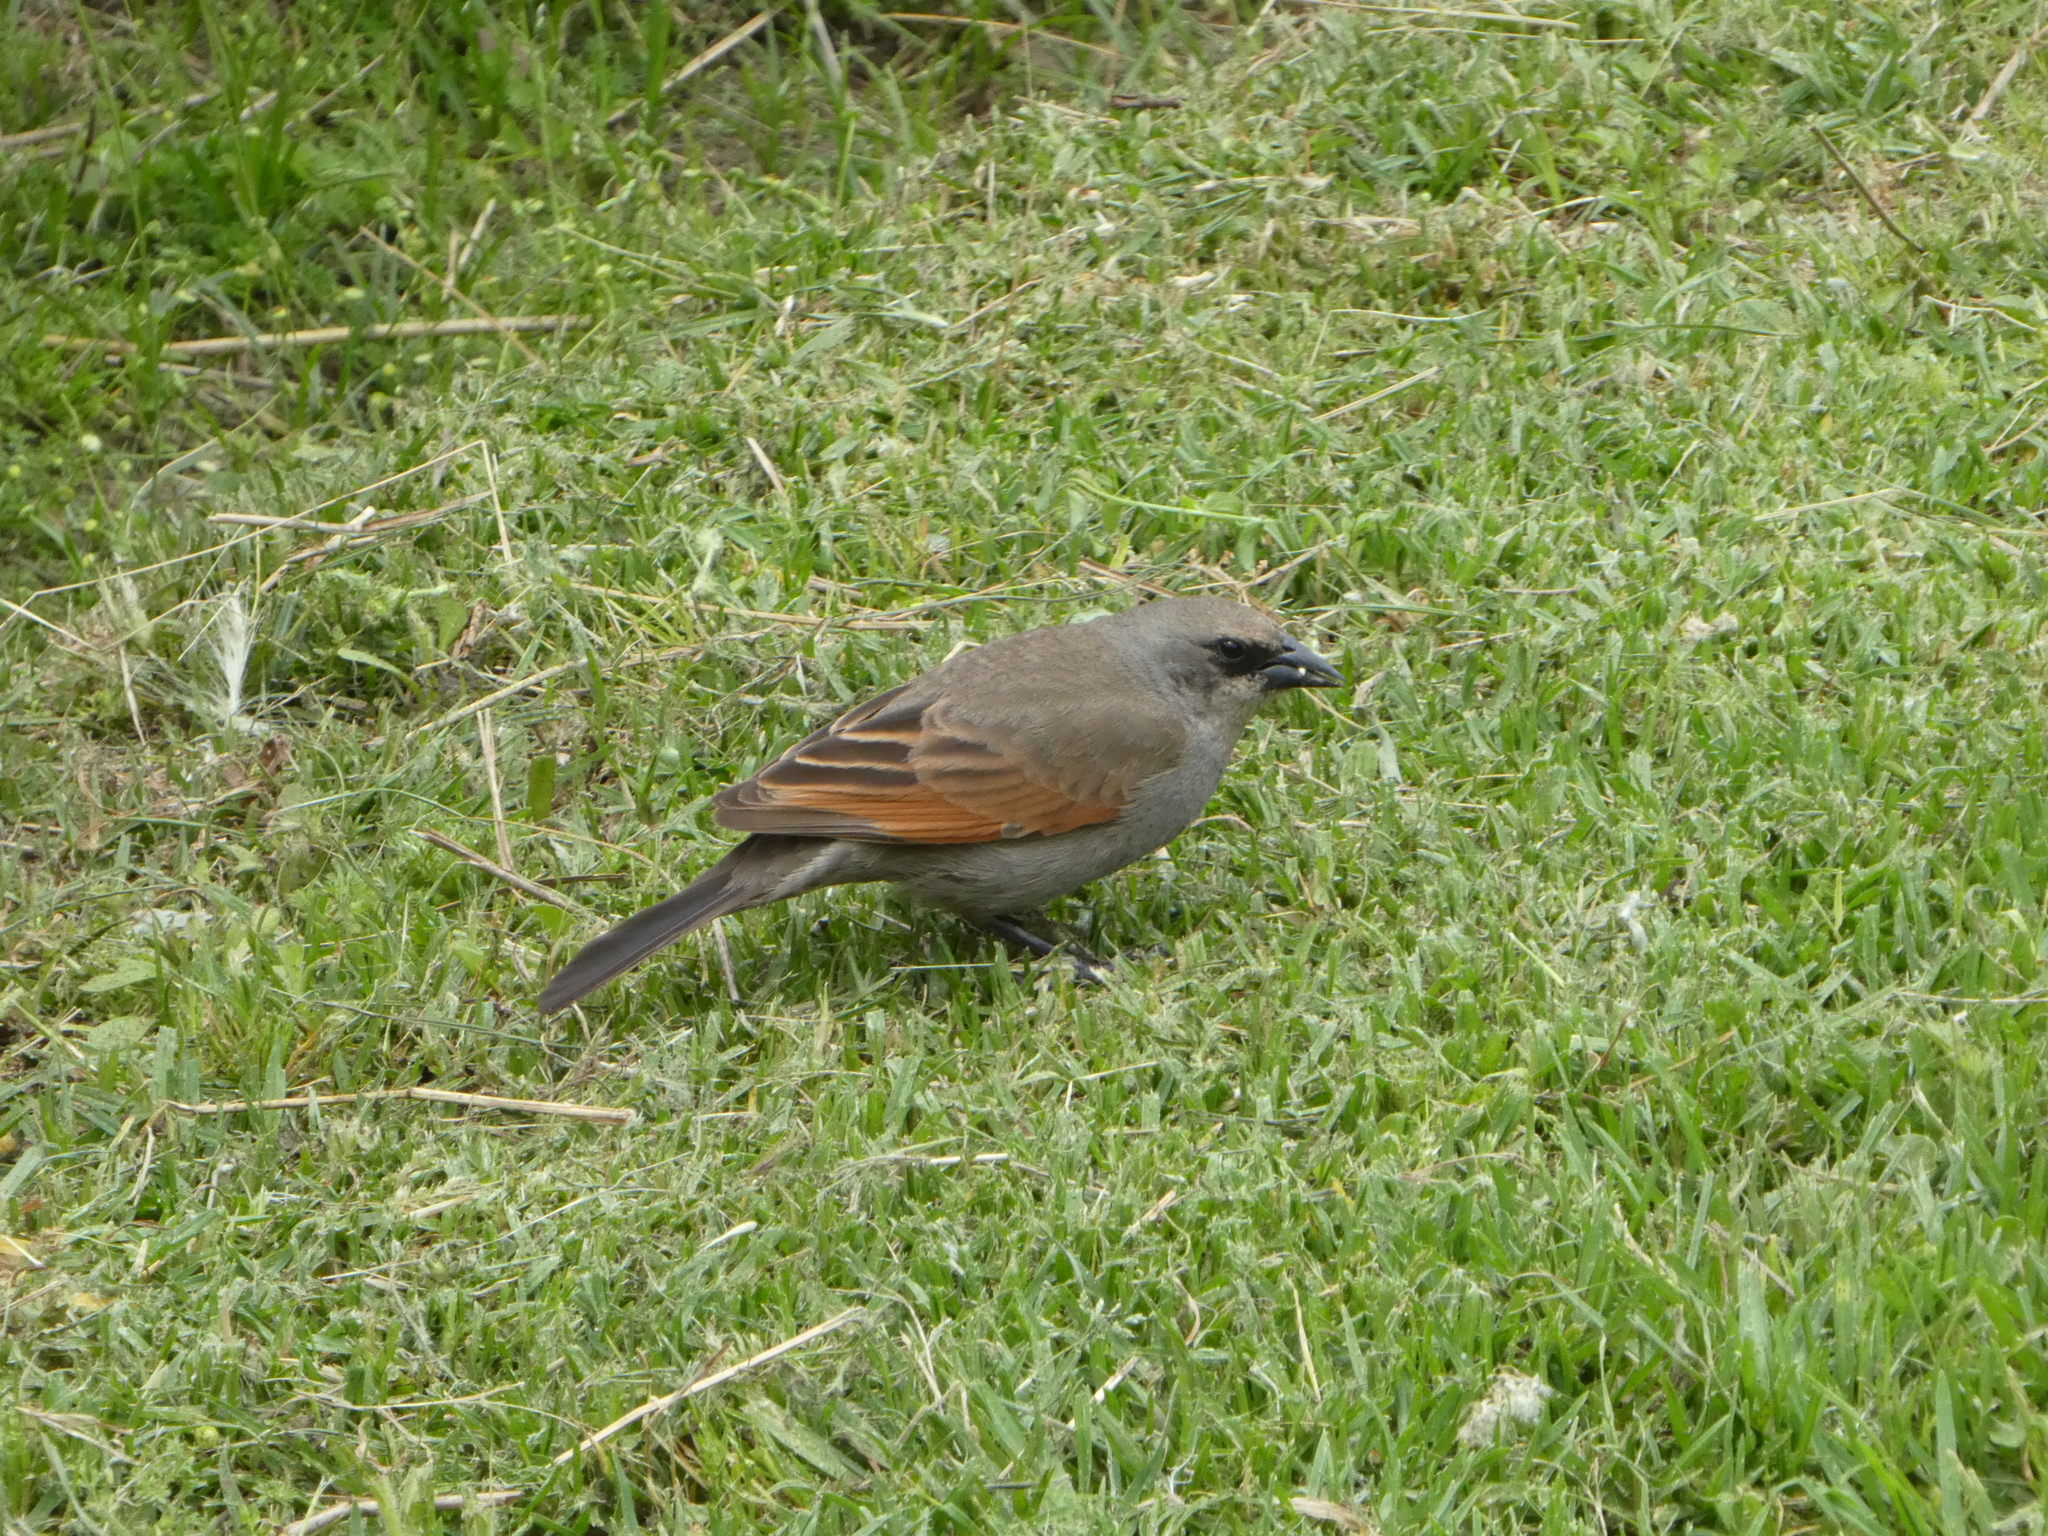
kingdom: Animalia
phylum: Chordata
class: Aves
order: Passeriformes
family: Icteridae
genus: Agelaioides
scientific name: Agelaioides badius
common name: Baywing
